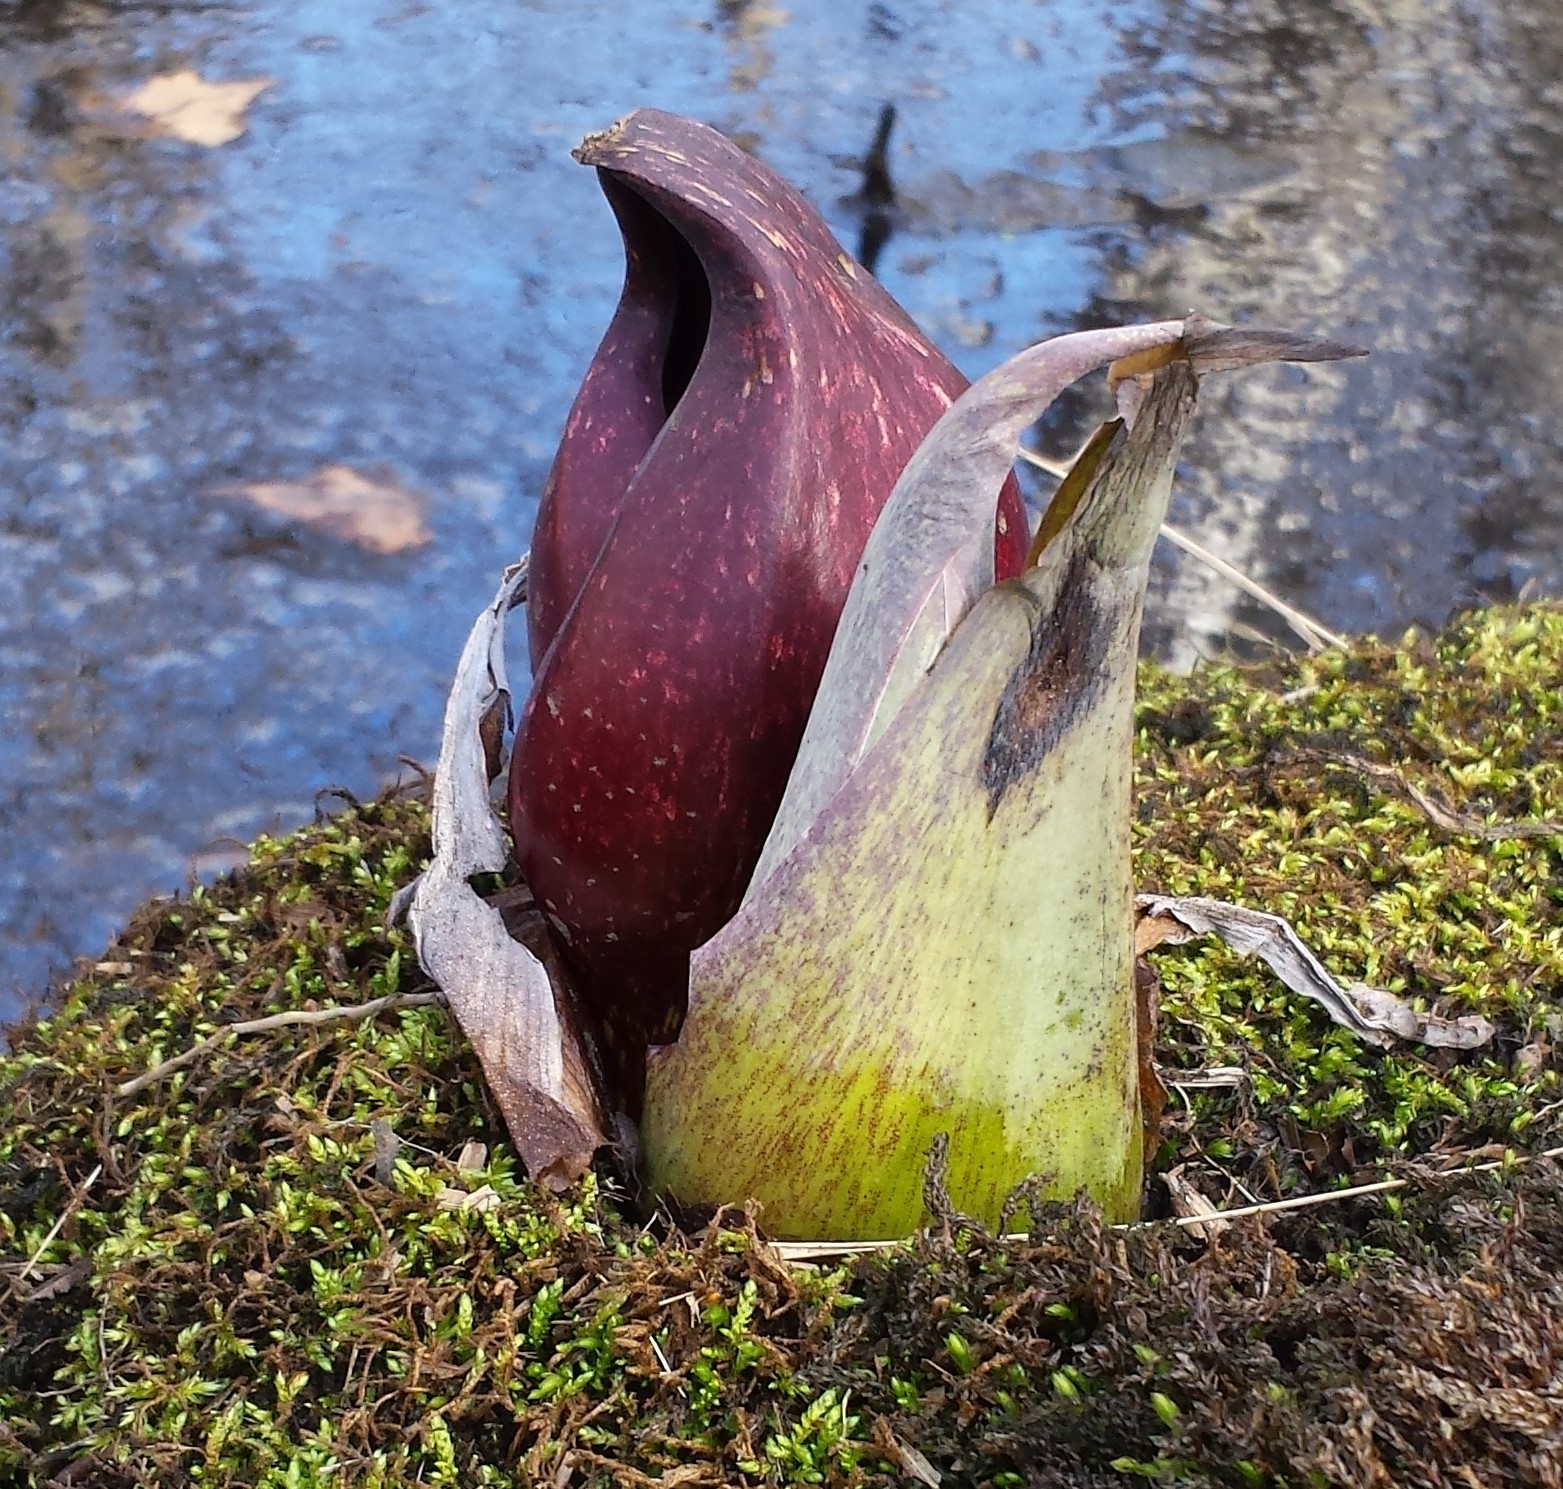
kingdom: Plantae
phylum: Tracheophyta
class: Liliopsida
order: Alismatales
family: Araceae
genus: Symplocarpus
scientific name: Symplocarpus foetidus
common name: Eastern skunk cabbage
